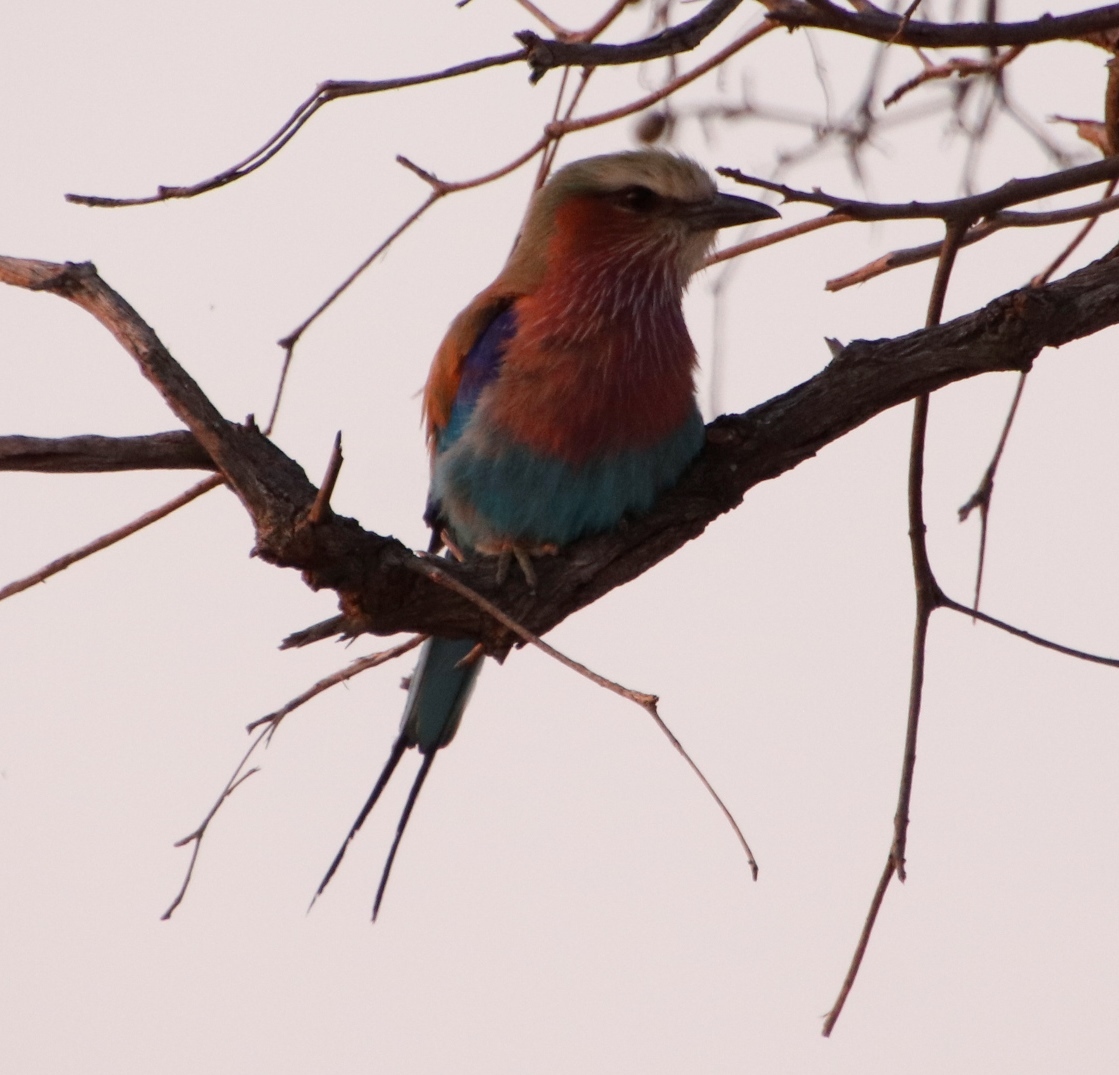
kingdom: Animalia
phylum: Chordata
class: Aves
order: Coraciiformes
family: Coraciidae
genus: Coracias
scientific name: Coracias caudatus
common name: Lilac-breasted roller
